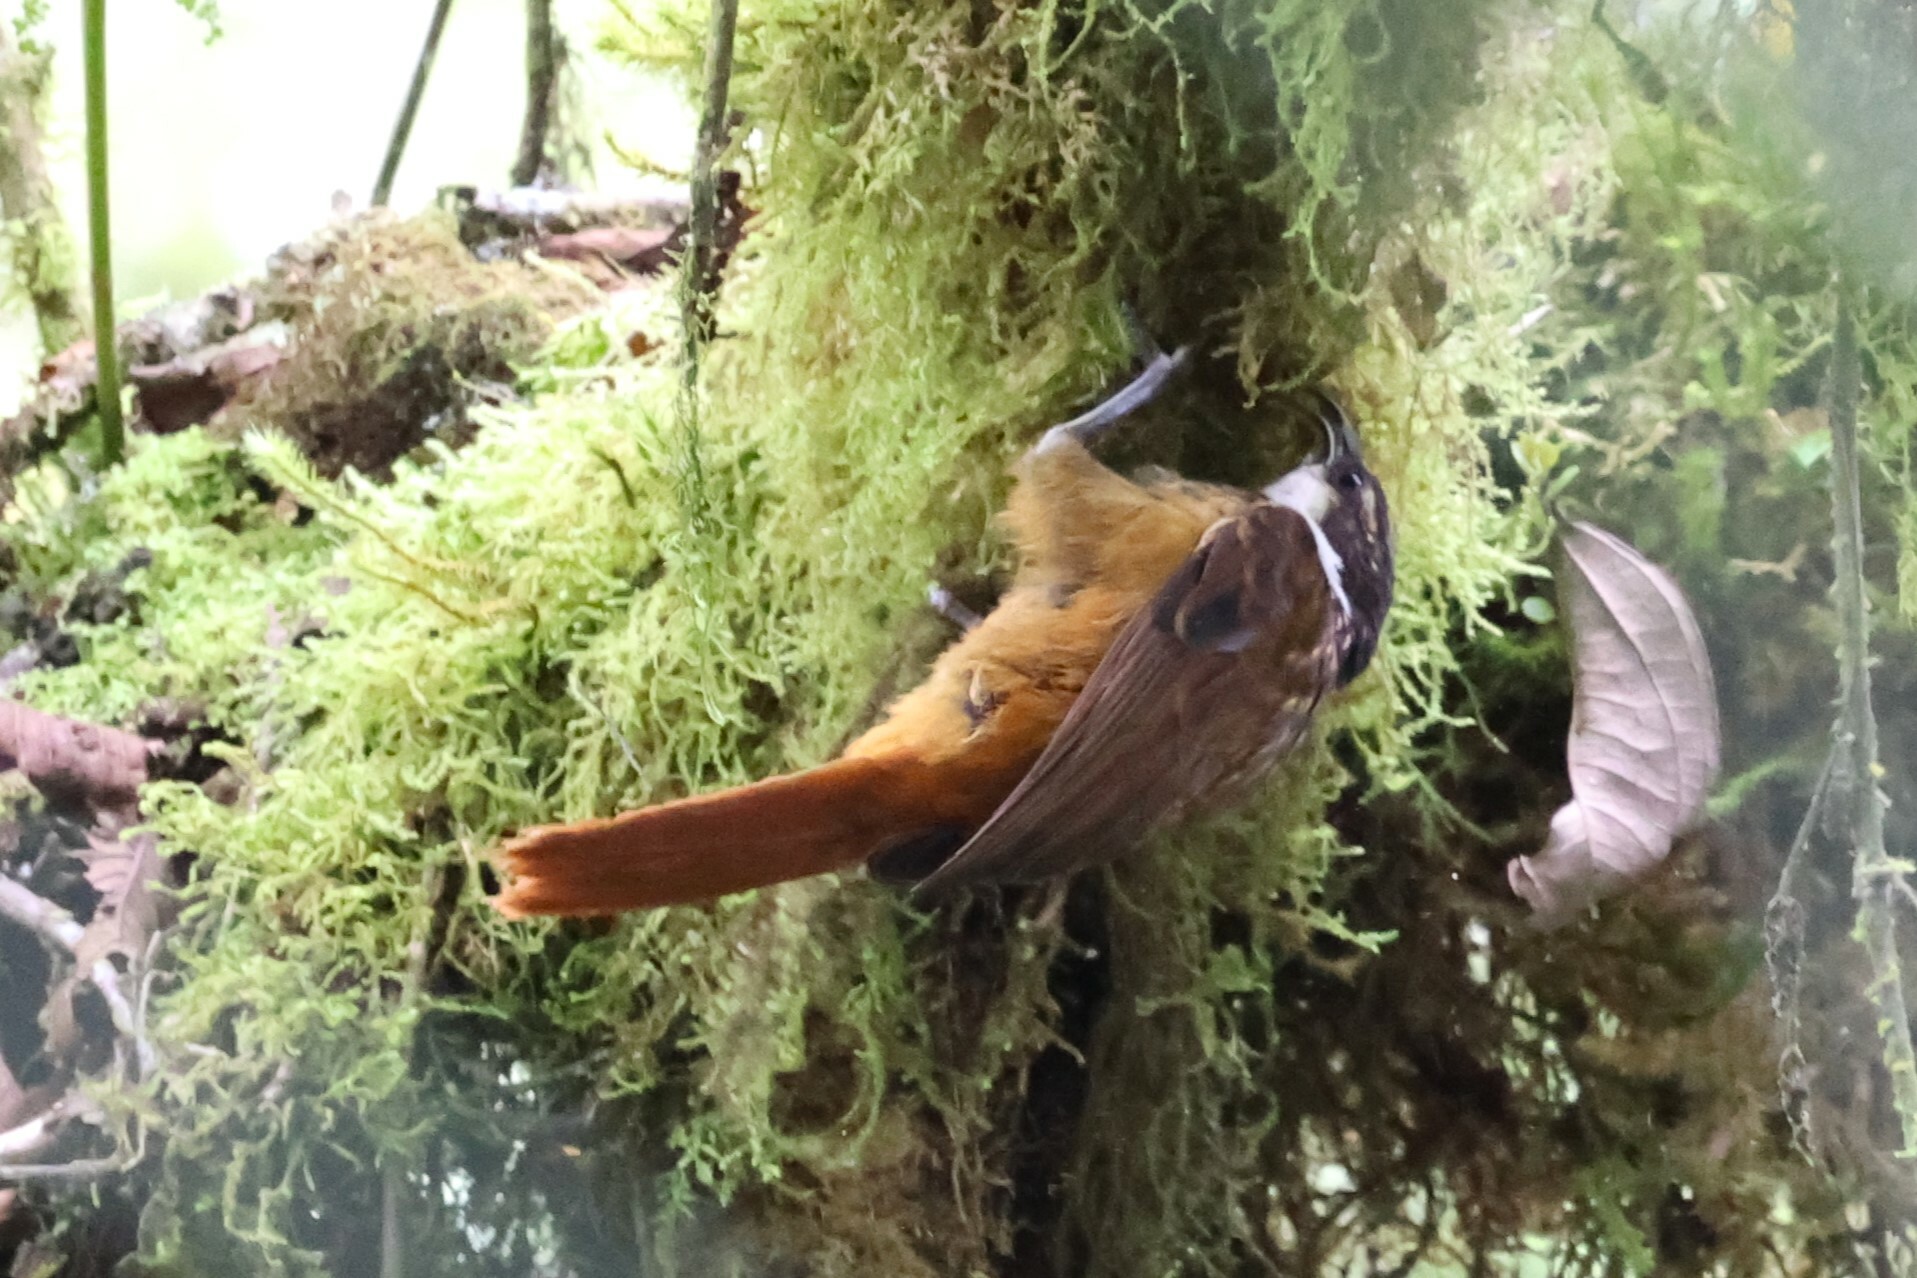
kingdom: Animalia
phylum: Chordata
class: Aves
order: Passeriformes
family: Furnariidae
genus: Pseudocolaptes
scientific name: Pseudocolaptes boissonneautii
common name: Streaked tuftedcheek
